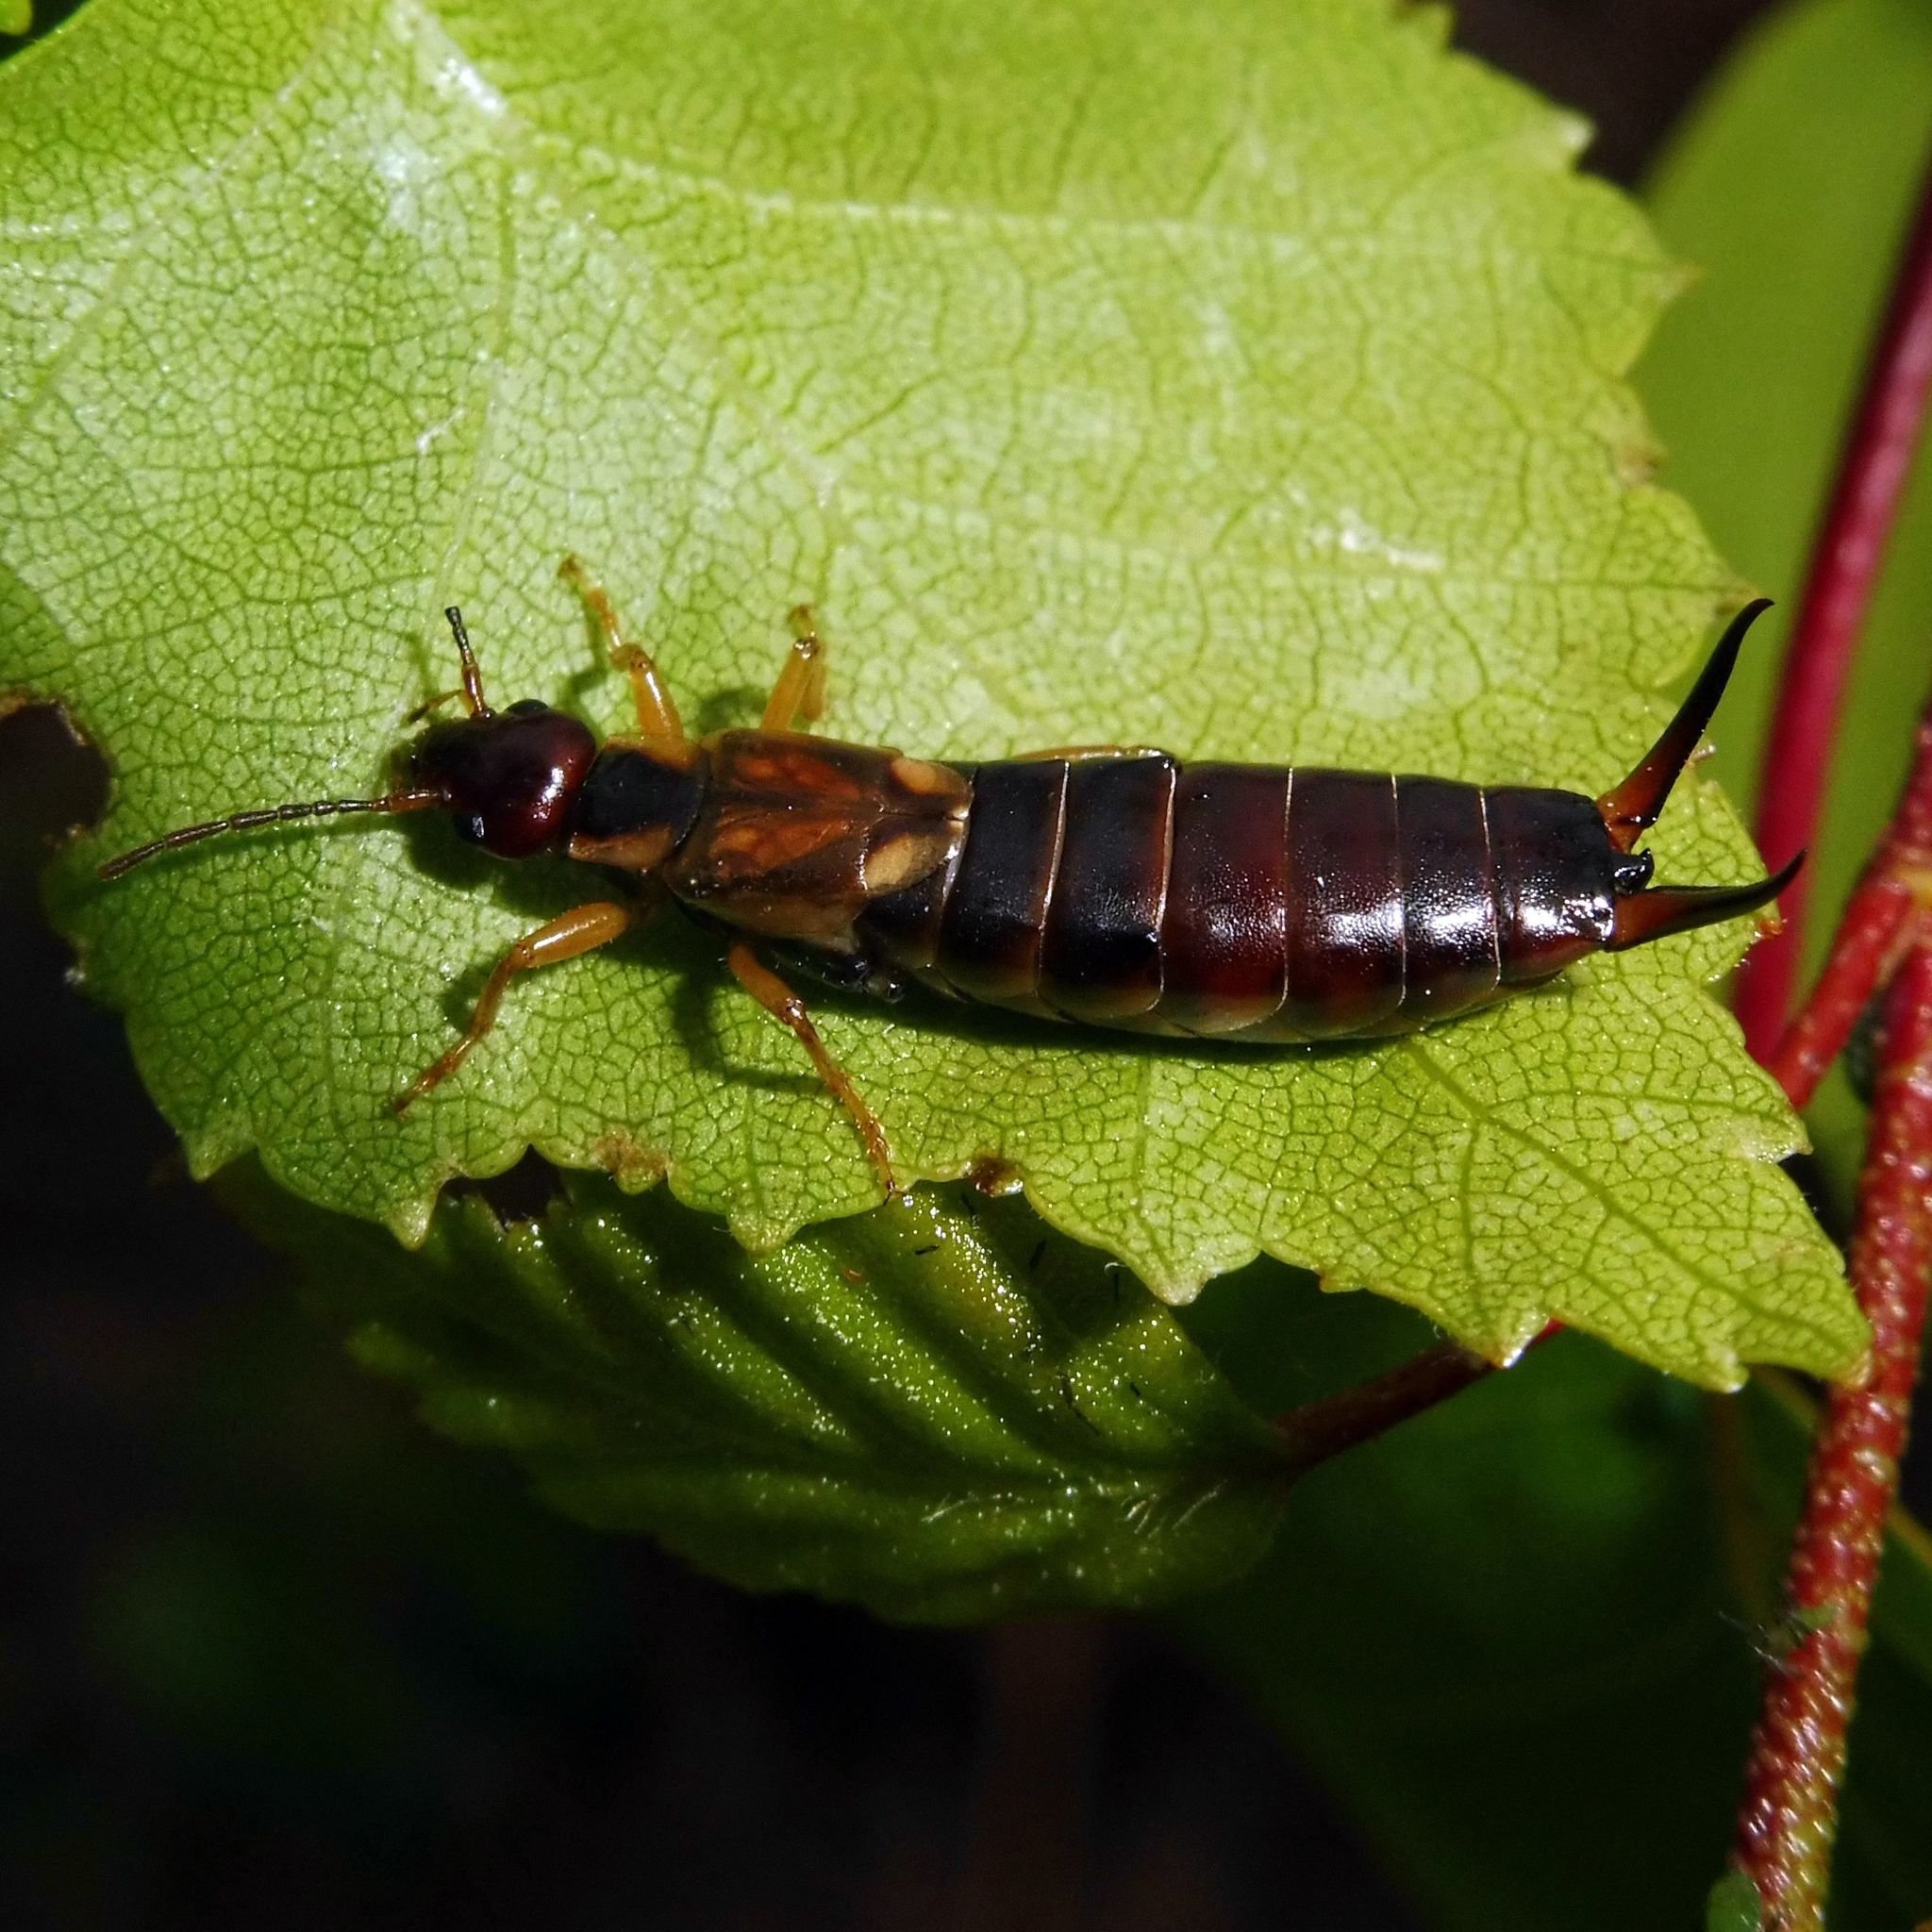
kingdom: Animalia
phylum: Arthropoda
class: Insecta
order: Dermaptera
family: Forficulidae
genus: Forficula
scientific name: Forficula
